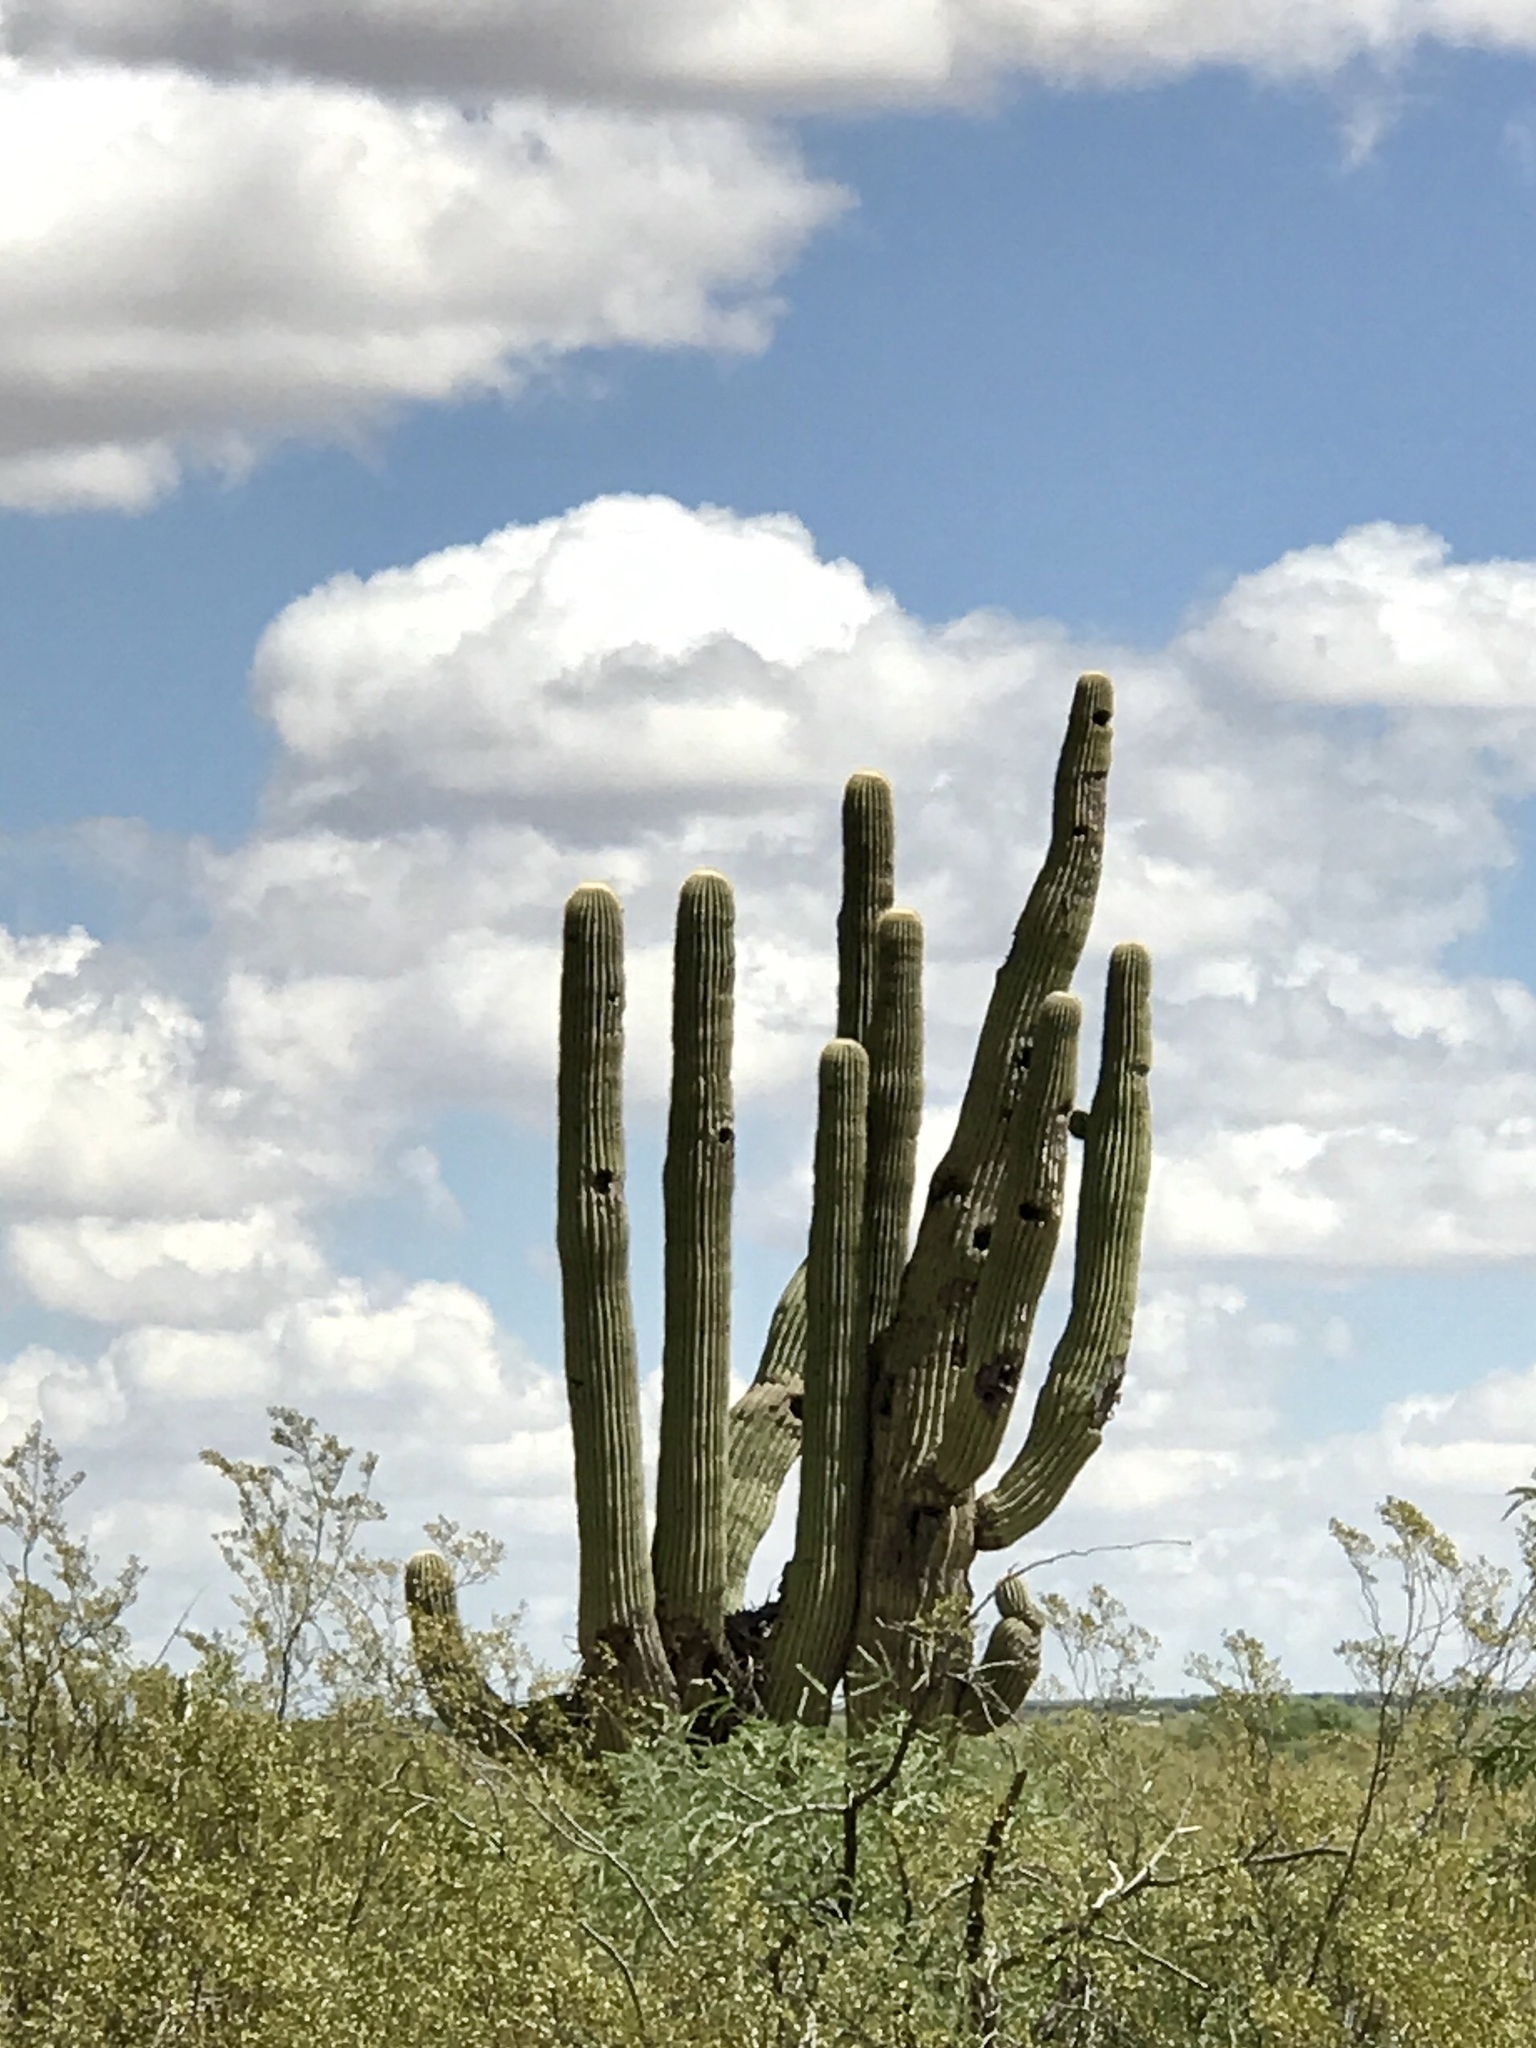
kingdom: Plantae
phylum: Tracheophyta
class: Magnoliopsida
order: Caryophyllales
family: Cactaceae
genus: Carnegiea
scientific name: Carnegiea gigantea
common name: Saguaro
